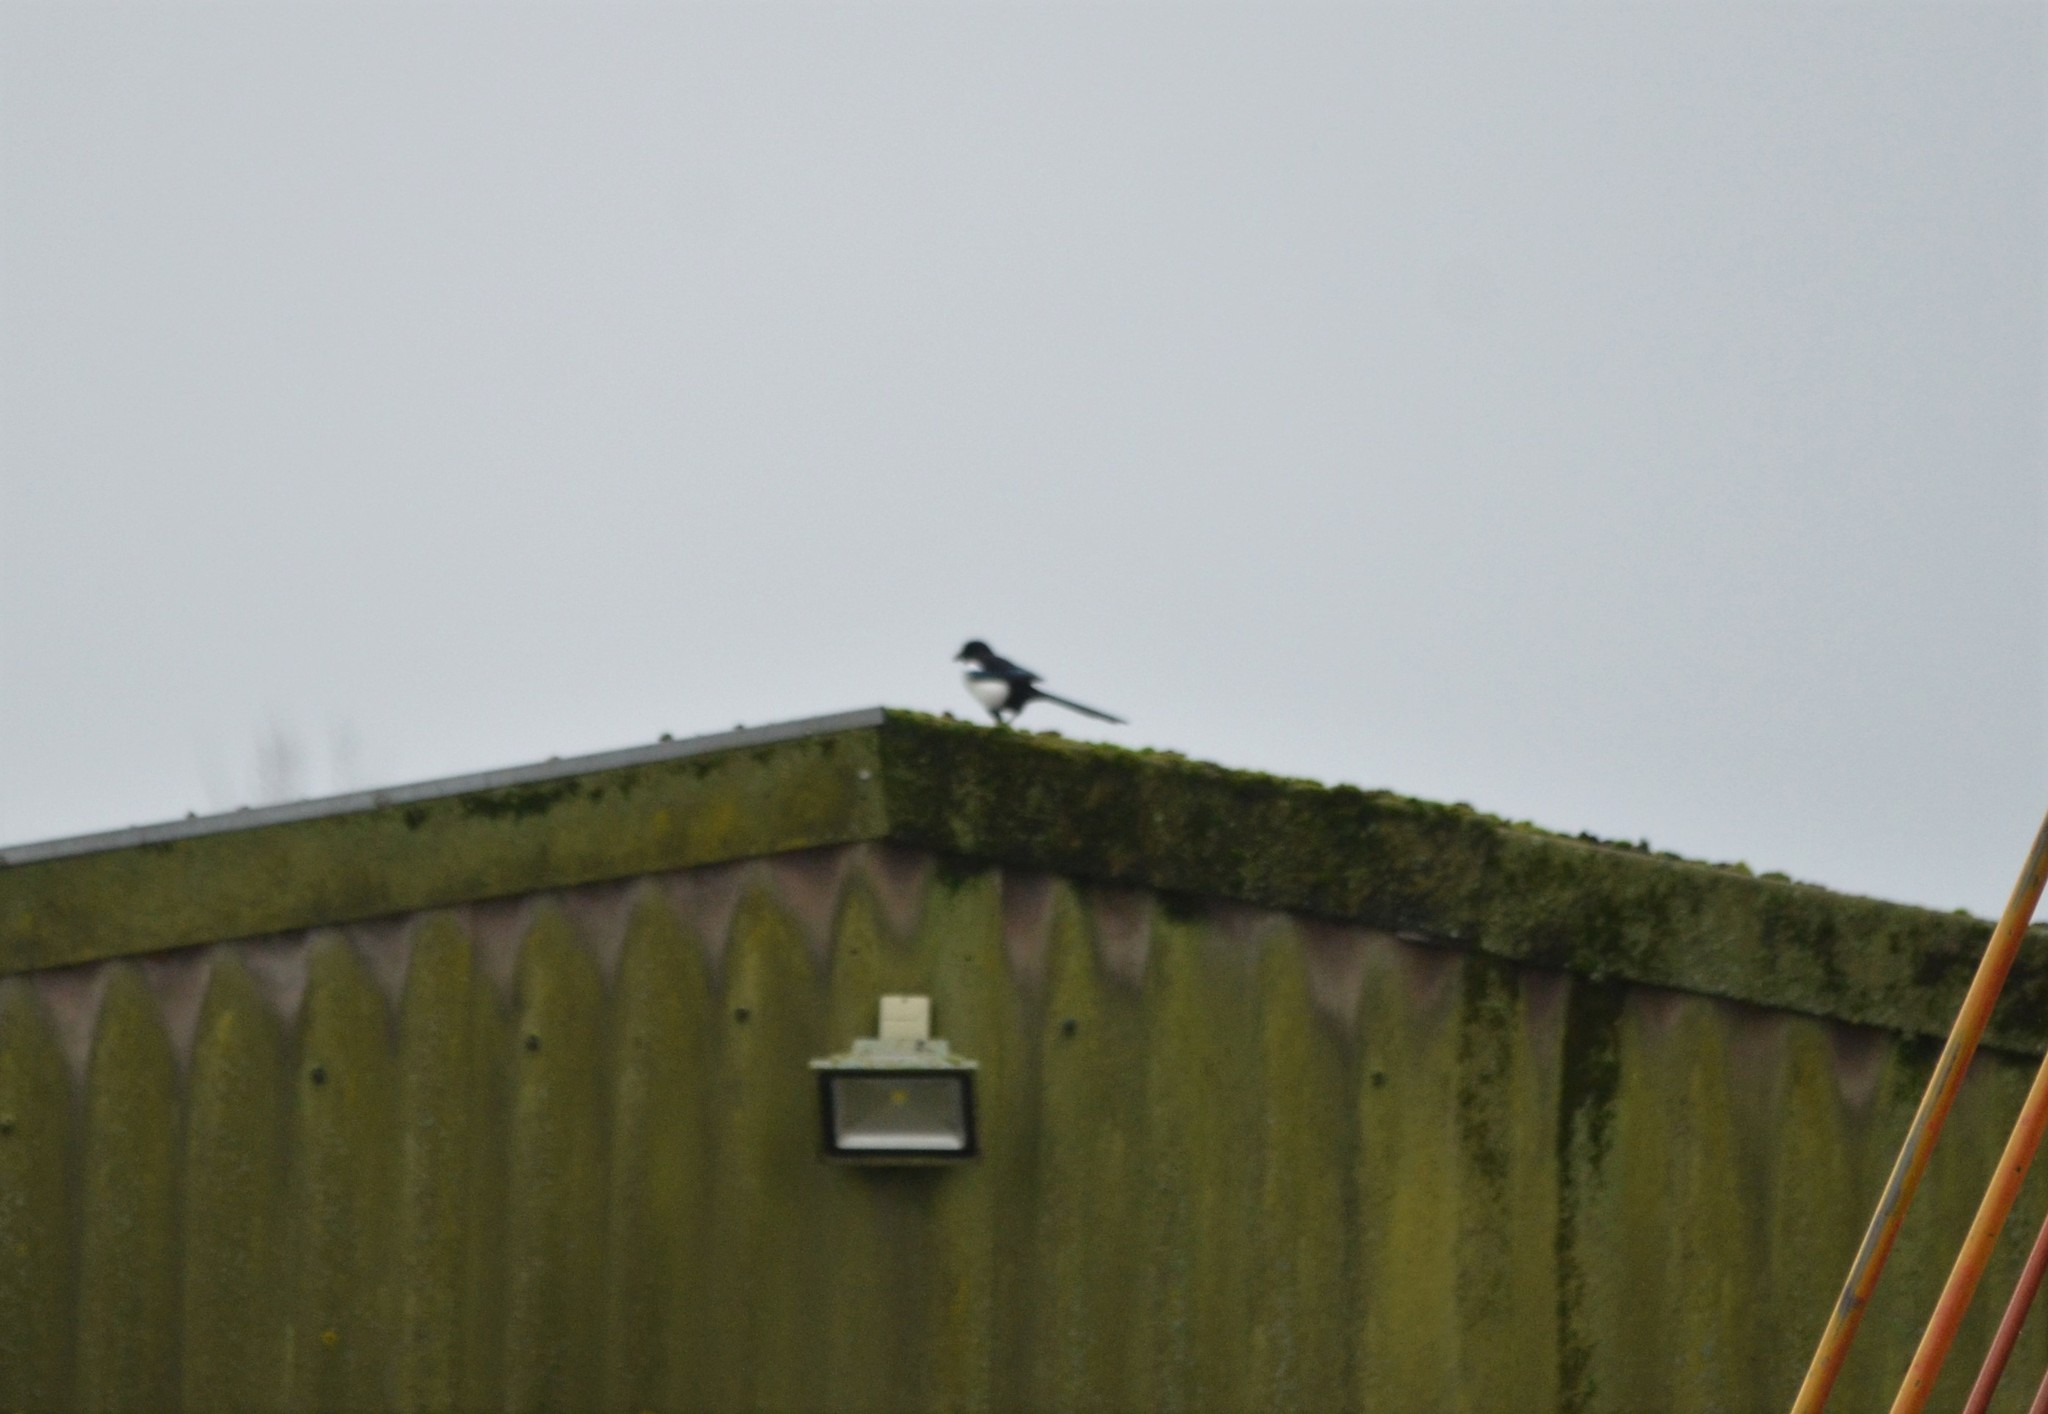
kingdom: Animalia
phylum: Chordata
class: Aves
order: Passeriformes
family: Corvidae
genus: Pica
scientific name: Pica pica
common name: Eurasian magpie
